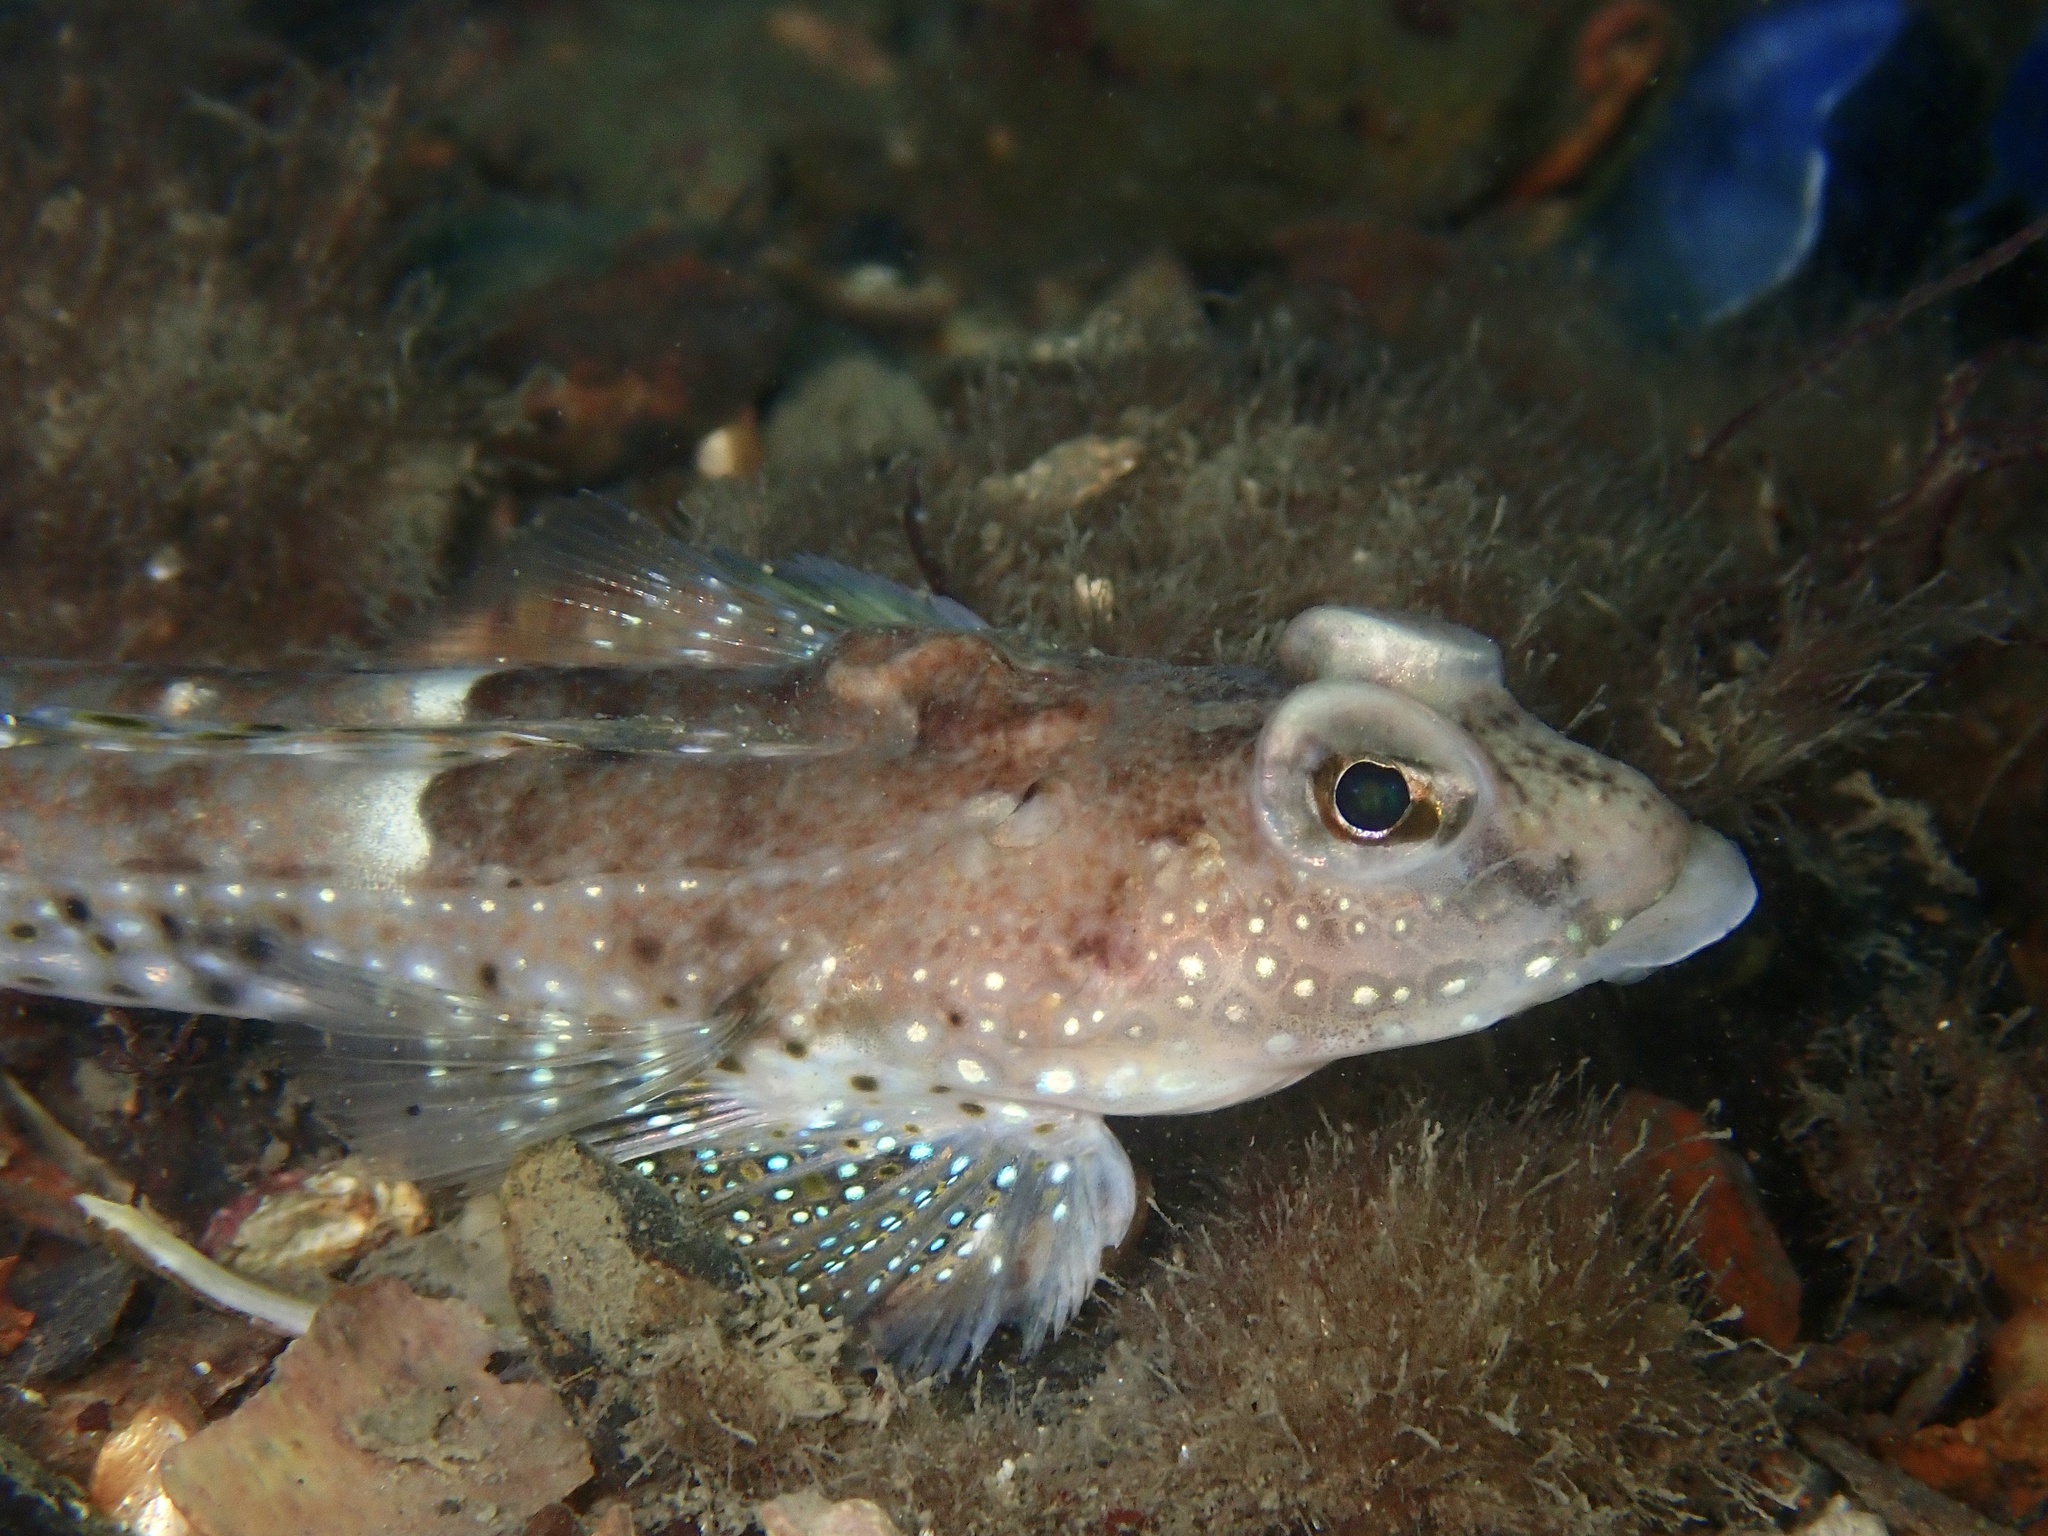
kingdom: Animalia
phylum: Chordata
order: Perciformes
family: Callionymidae
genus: Callionymus
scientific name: Callionymus maculatus
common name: Spotted dragonet
